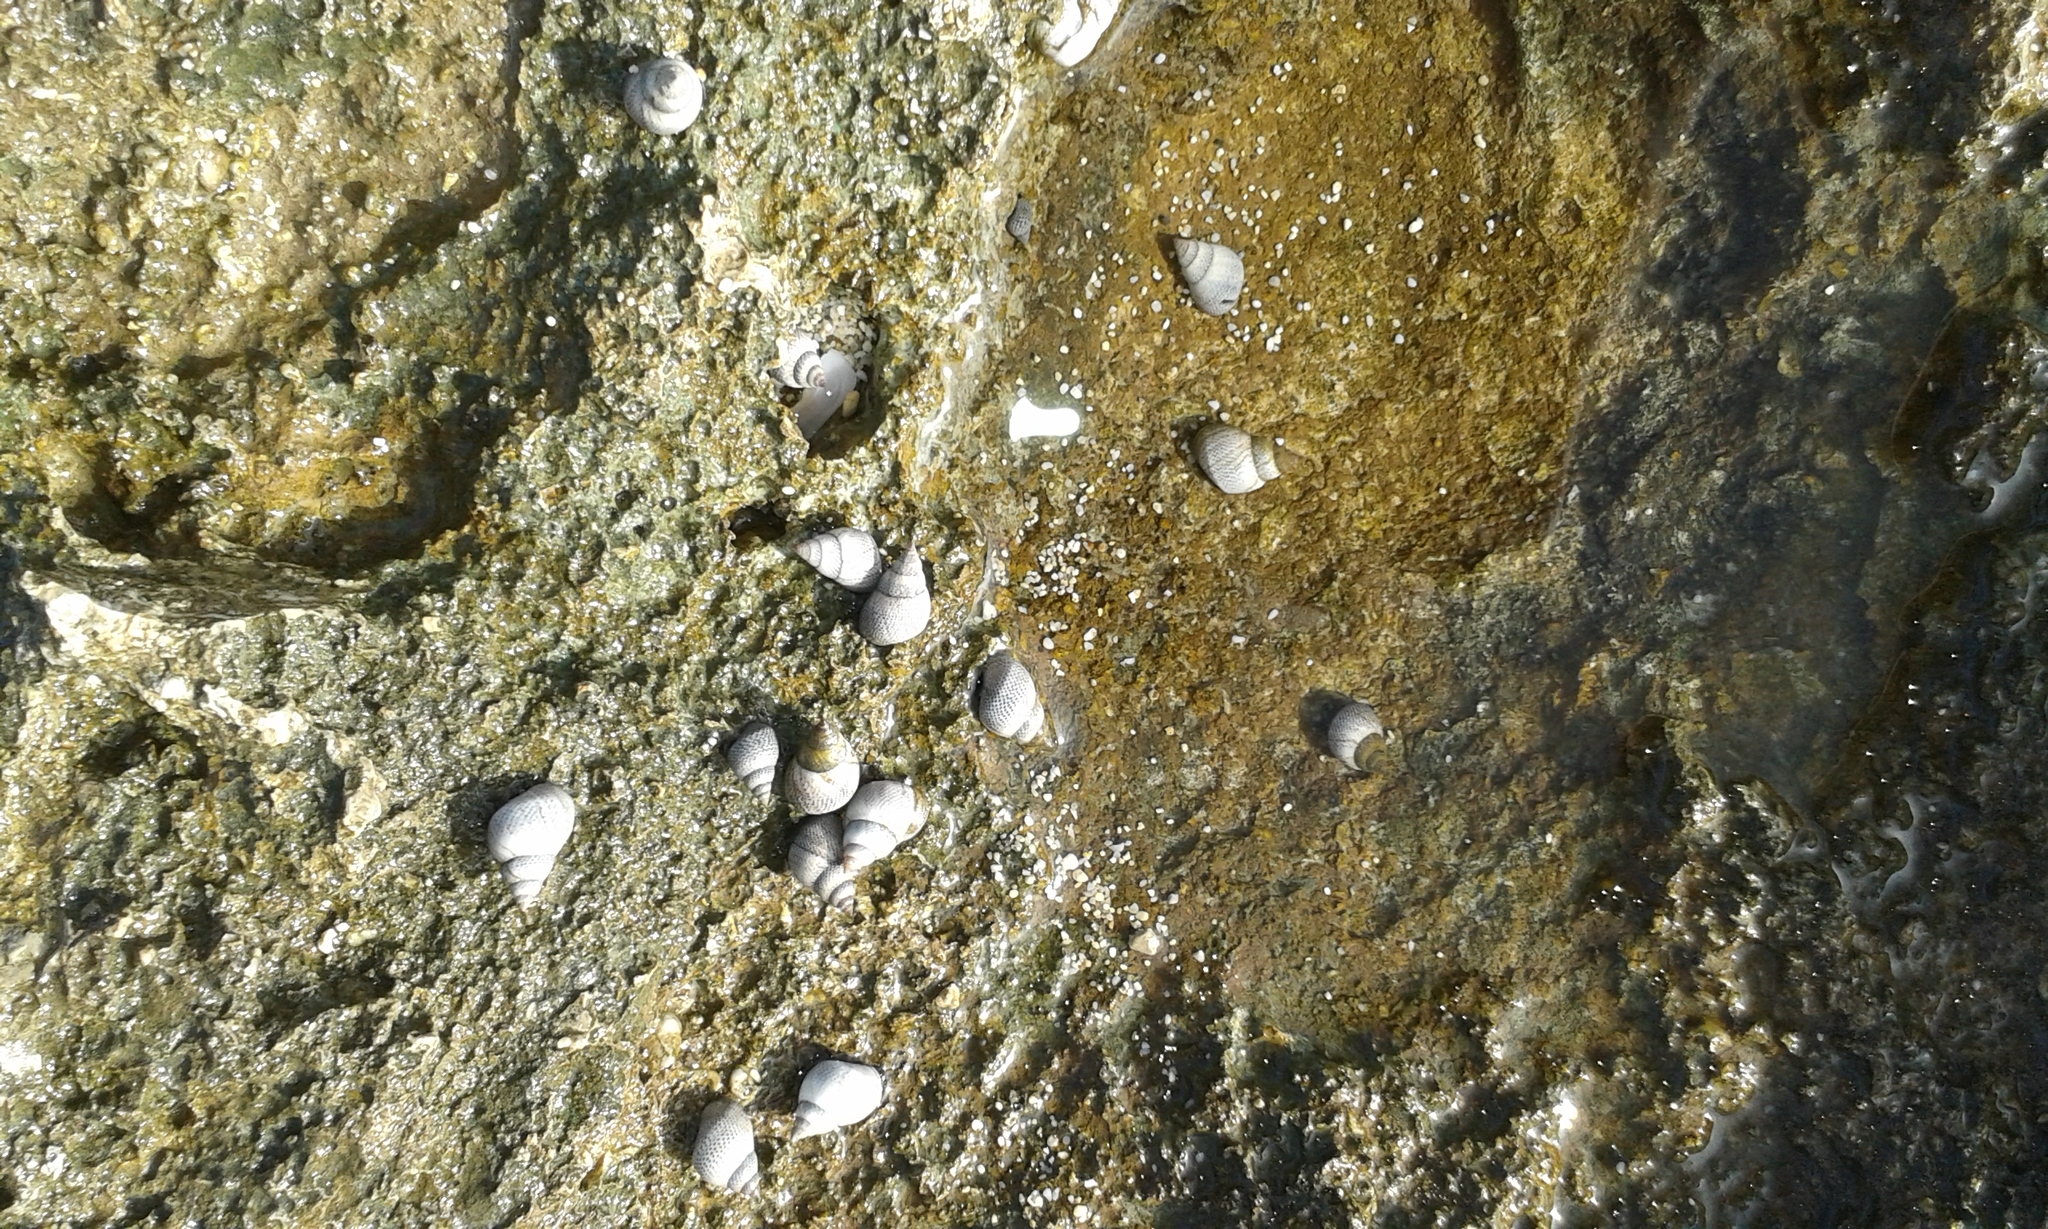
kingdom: Animalia
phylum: Mollusca
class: Gastropoda
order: Littorinimorpha
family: Littorinidae
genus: Littoraria
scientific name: Littoraria pintado
